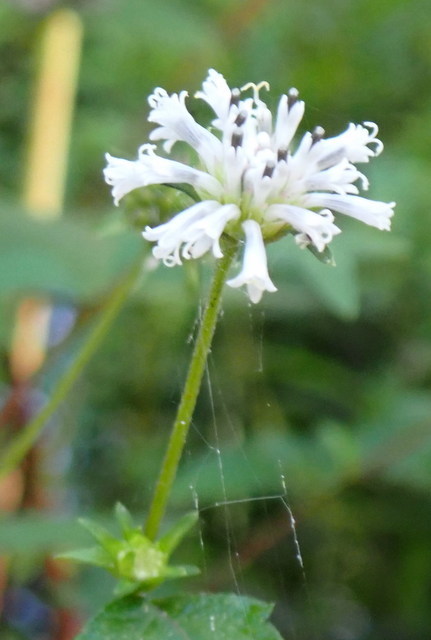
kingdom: Plantae
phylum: Tracheophyta
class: Magnoliopsida
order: Asterales
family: Asteraceae
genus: Melanthera
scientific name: Melanthera nivea
